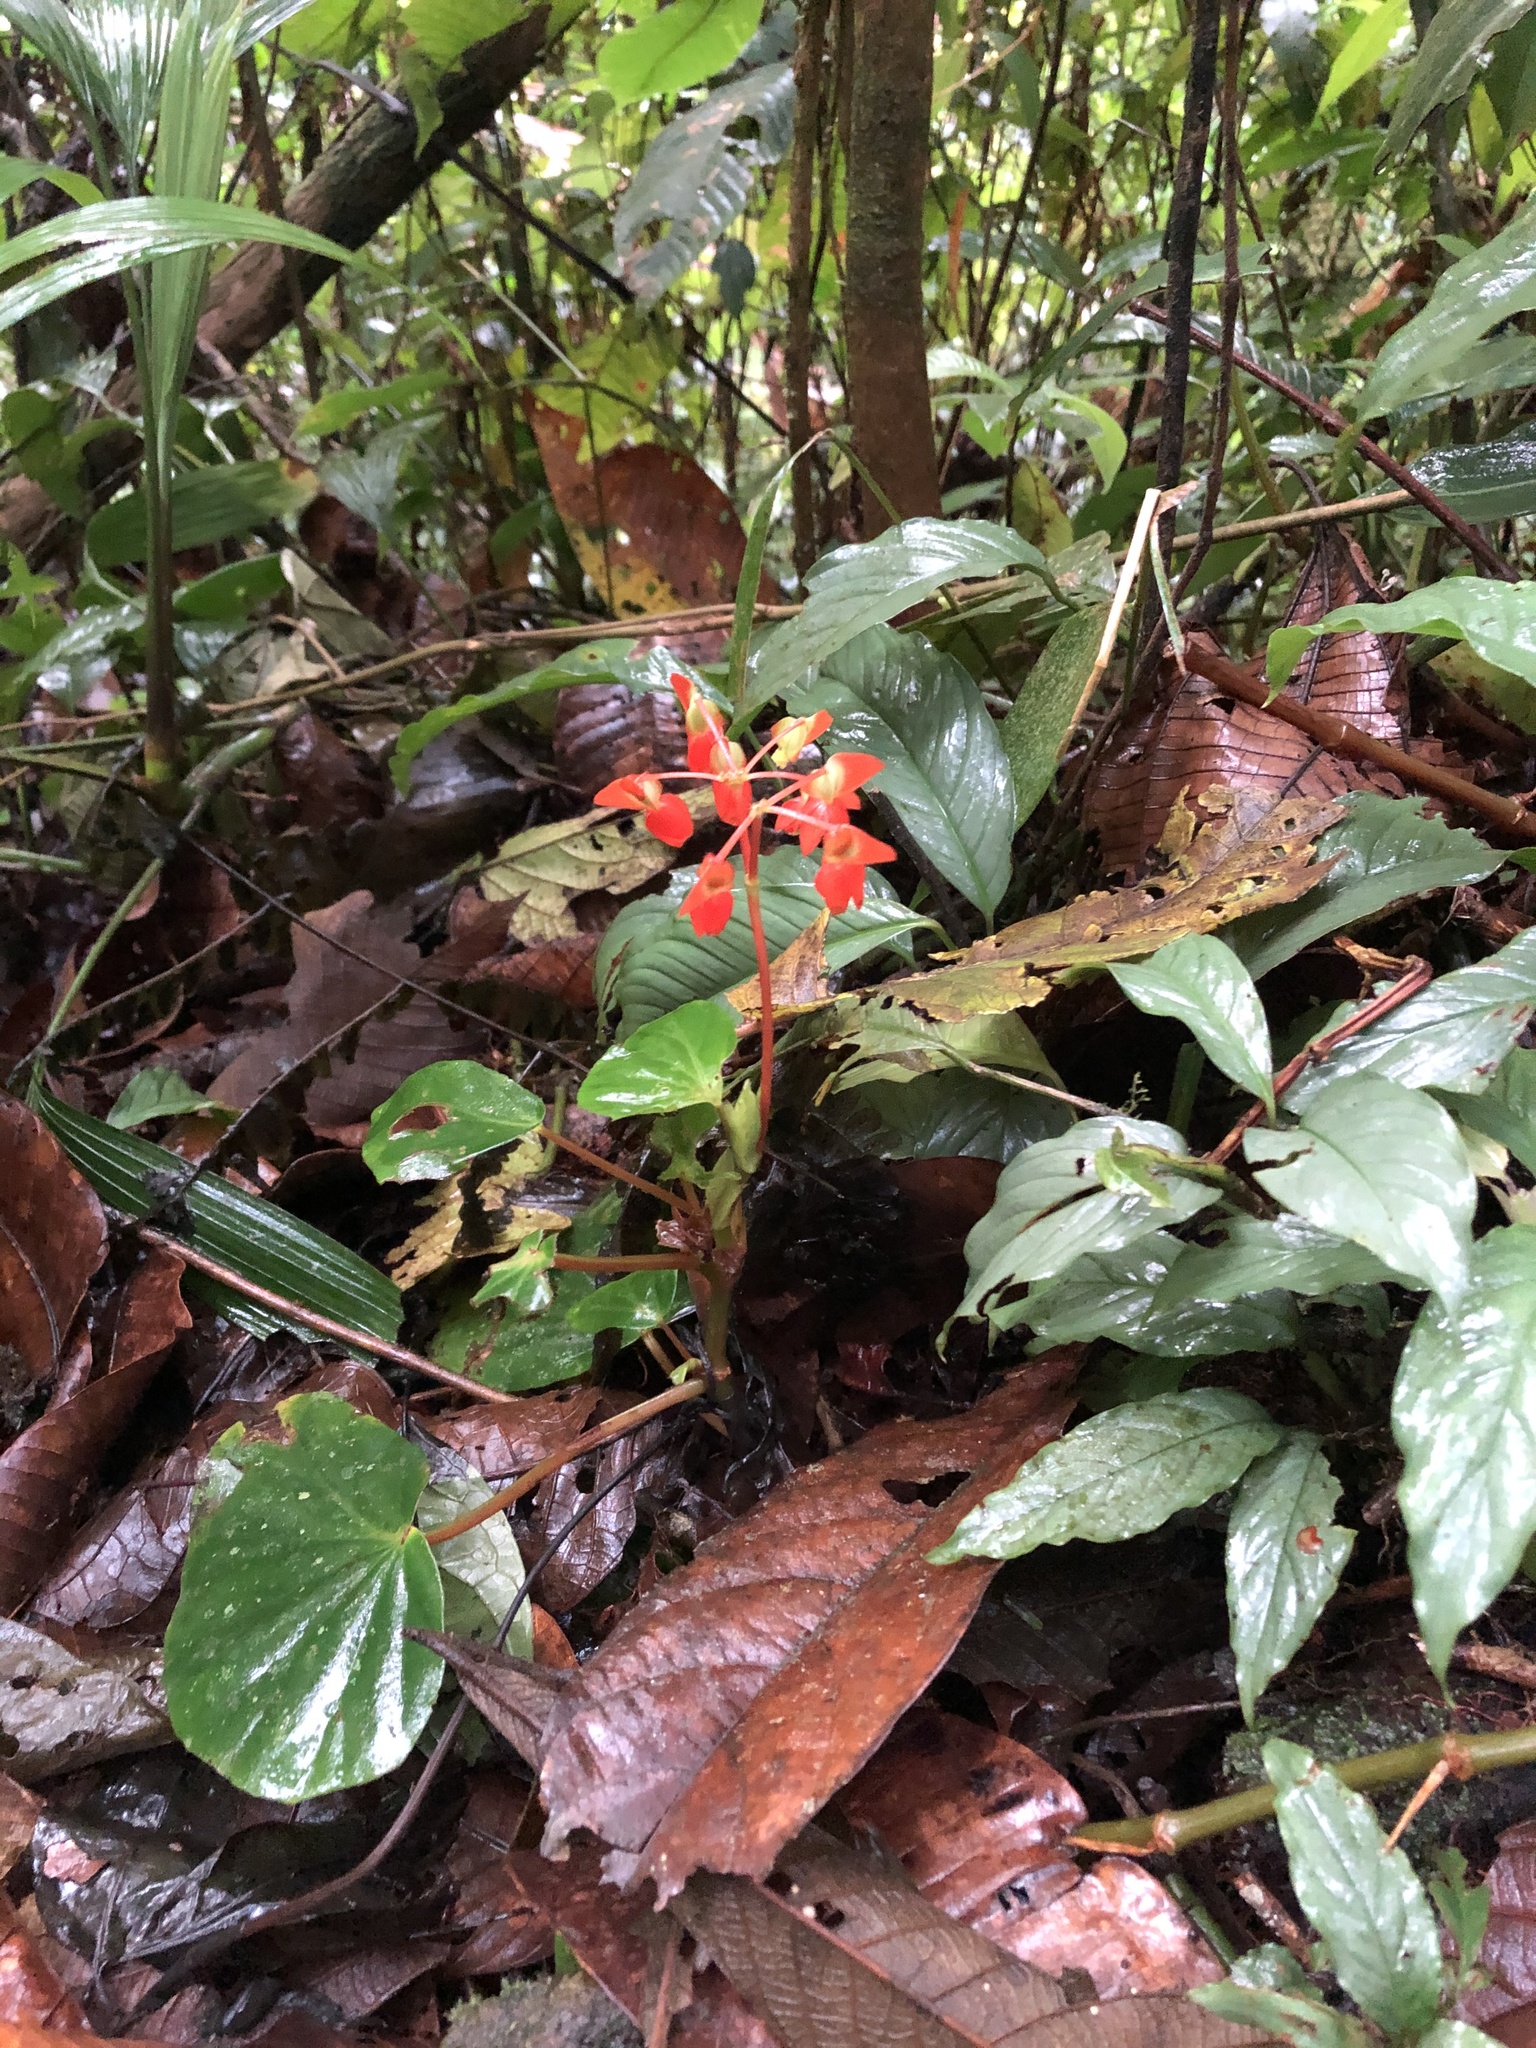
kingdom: Plantae
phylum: Tracheophyta
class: Magnoliopsida
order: Cucurbitales
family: Begoniaceae
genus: Begonia
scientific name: Begonia stenotepala
